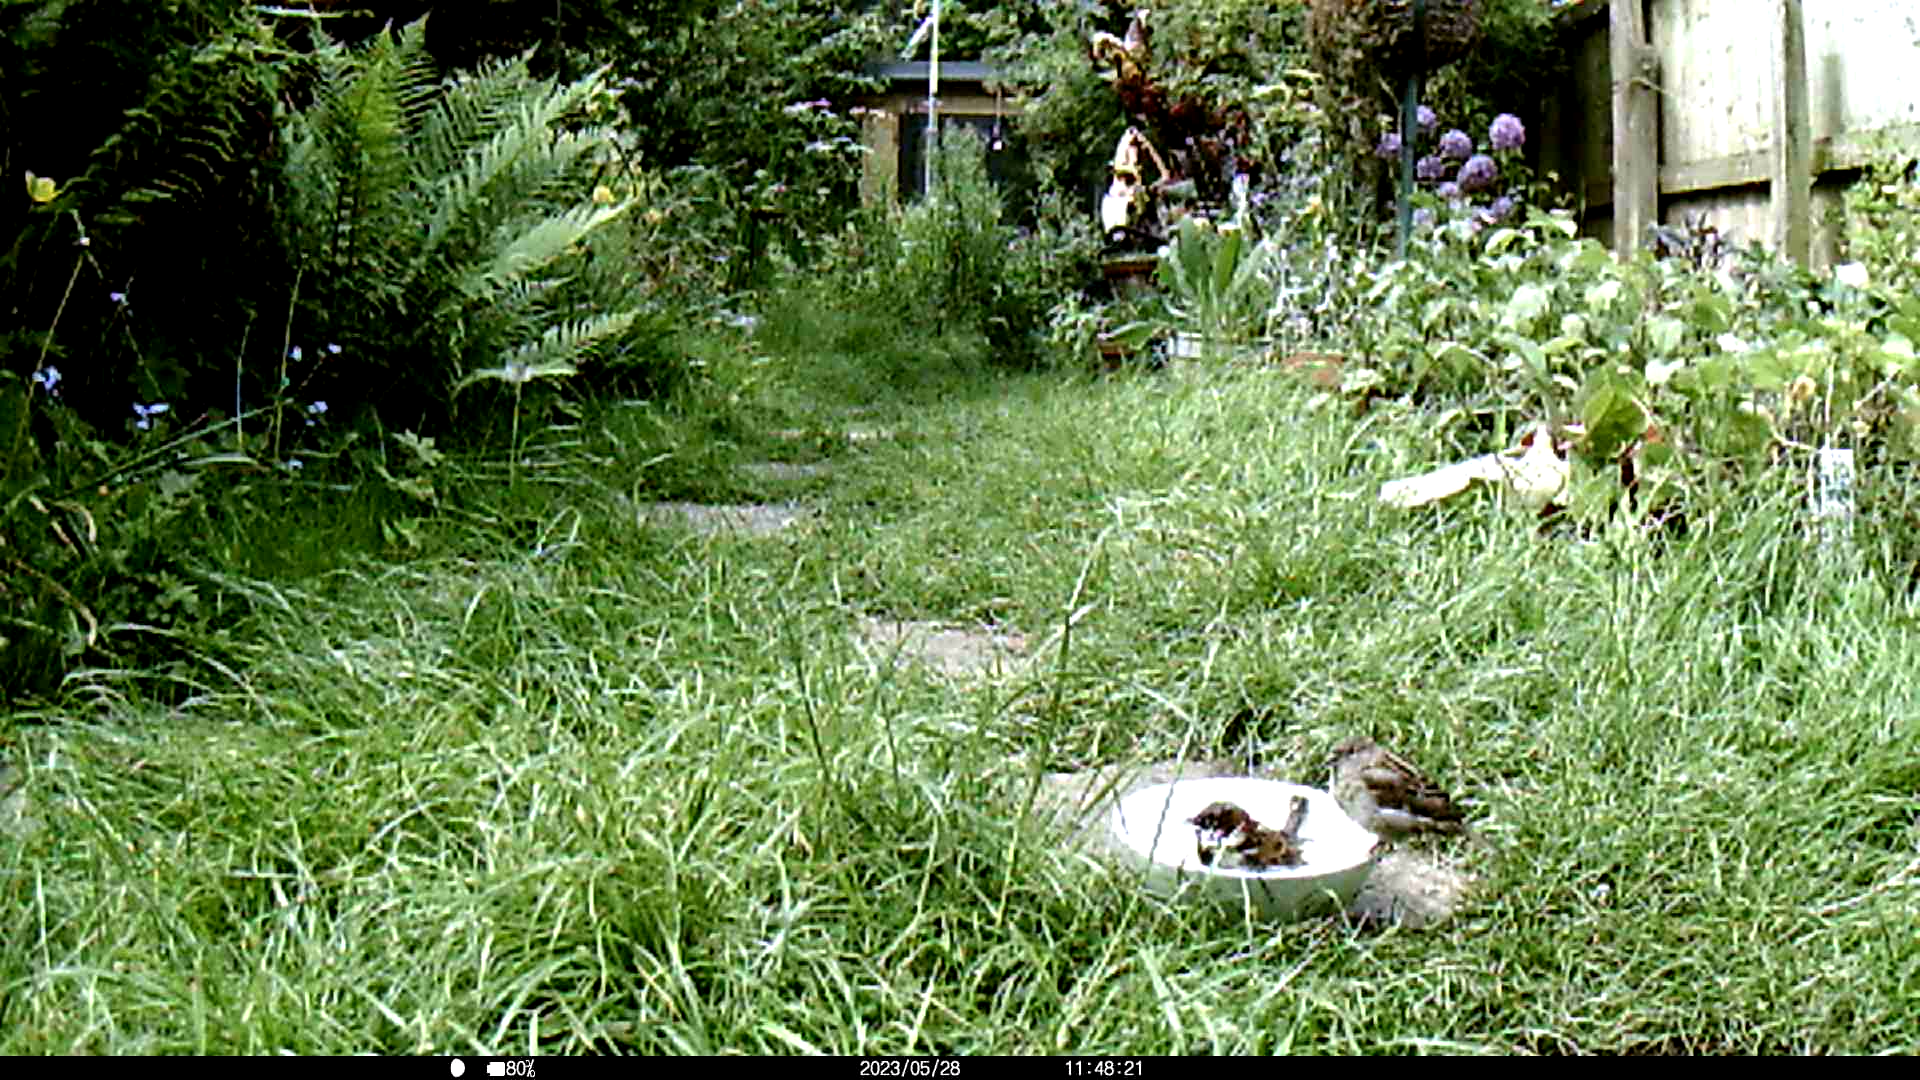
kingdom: Animalia
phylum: Chordata
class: Aves
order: Passeriformes
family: Passeridae
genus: Passer
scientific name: Passer domesticus
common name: House sparrow
